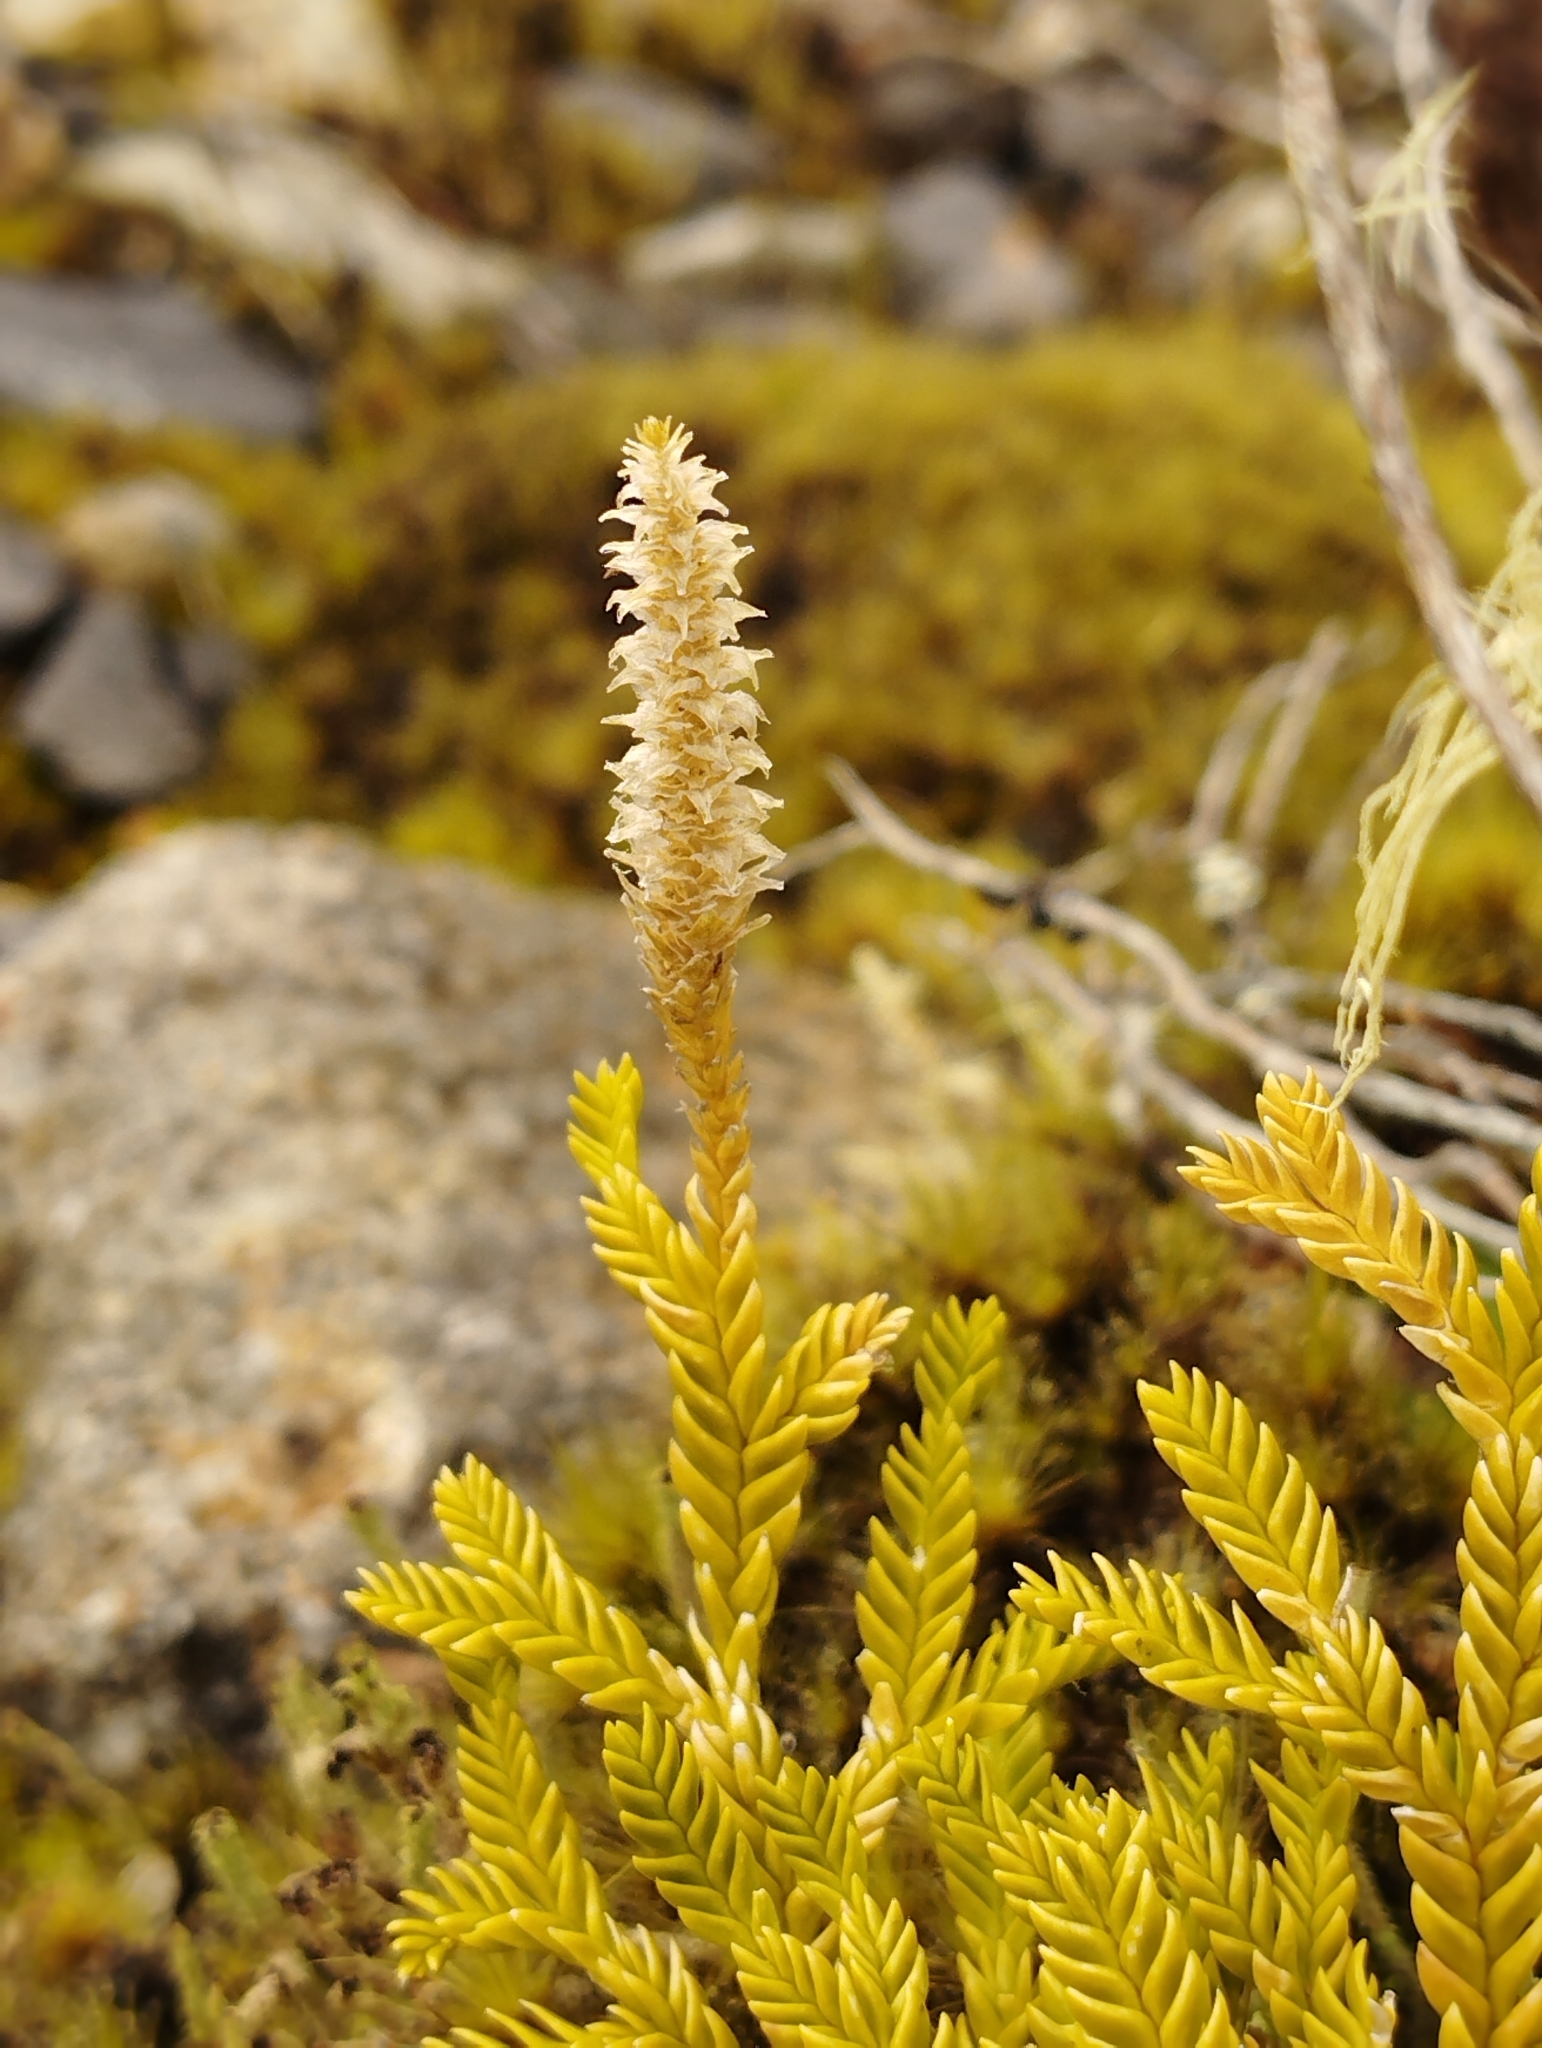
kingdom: Plantae
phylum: Tracheophyta
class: Lycopodiopsida
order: Lycopodiales
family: Lycopodiaceae
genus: Diphasium
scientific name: Diphasium scariosum
